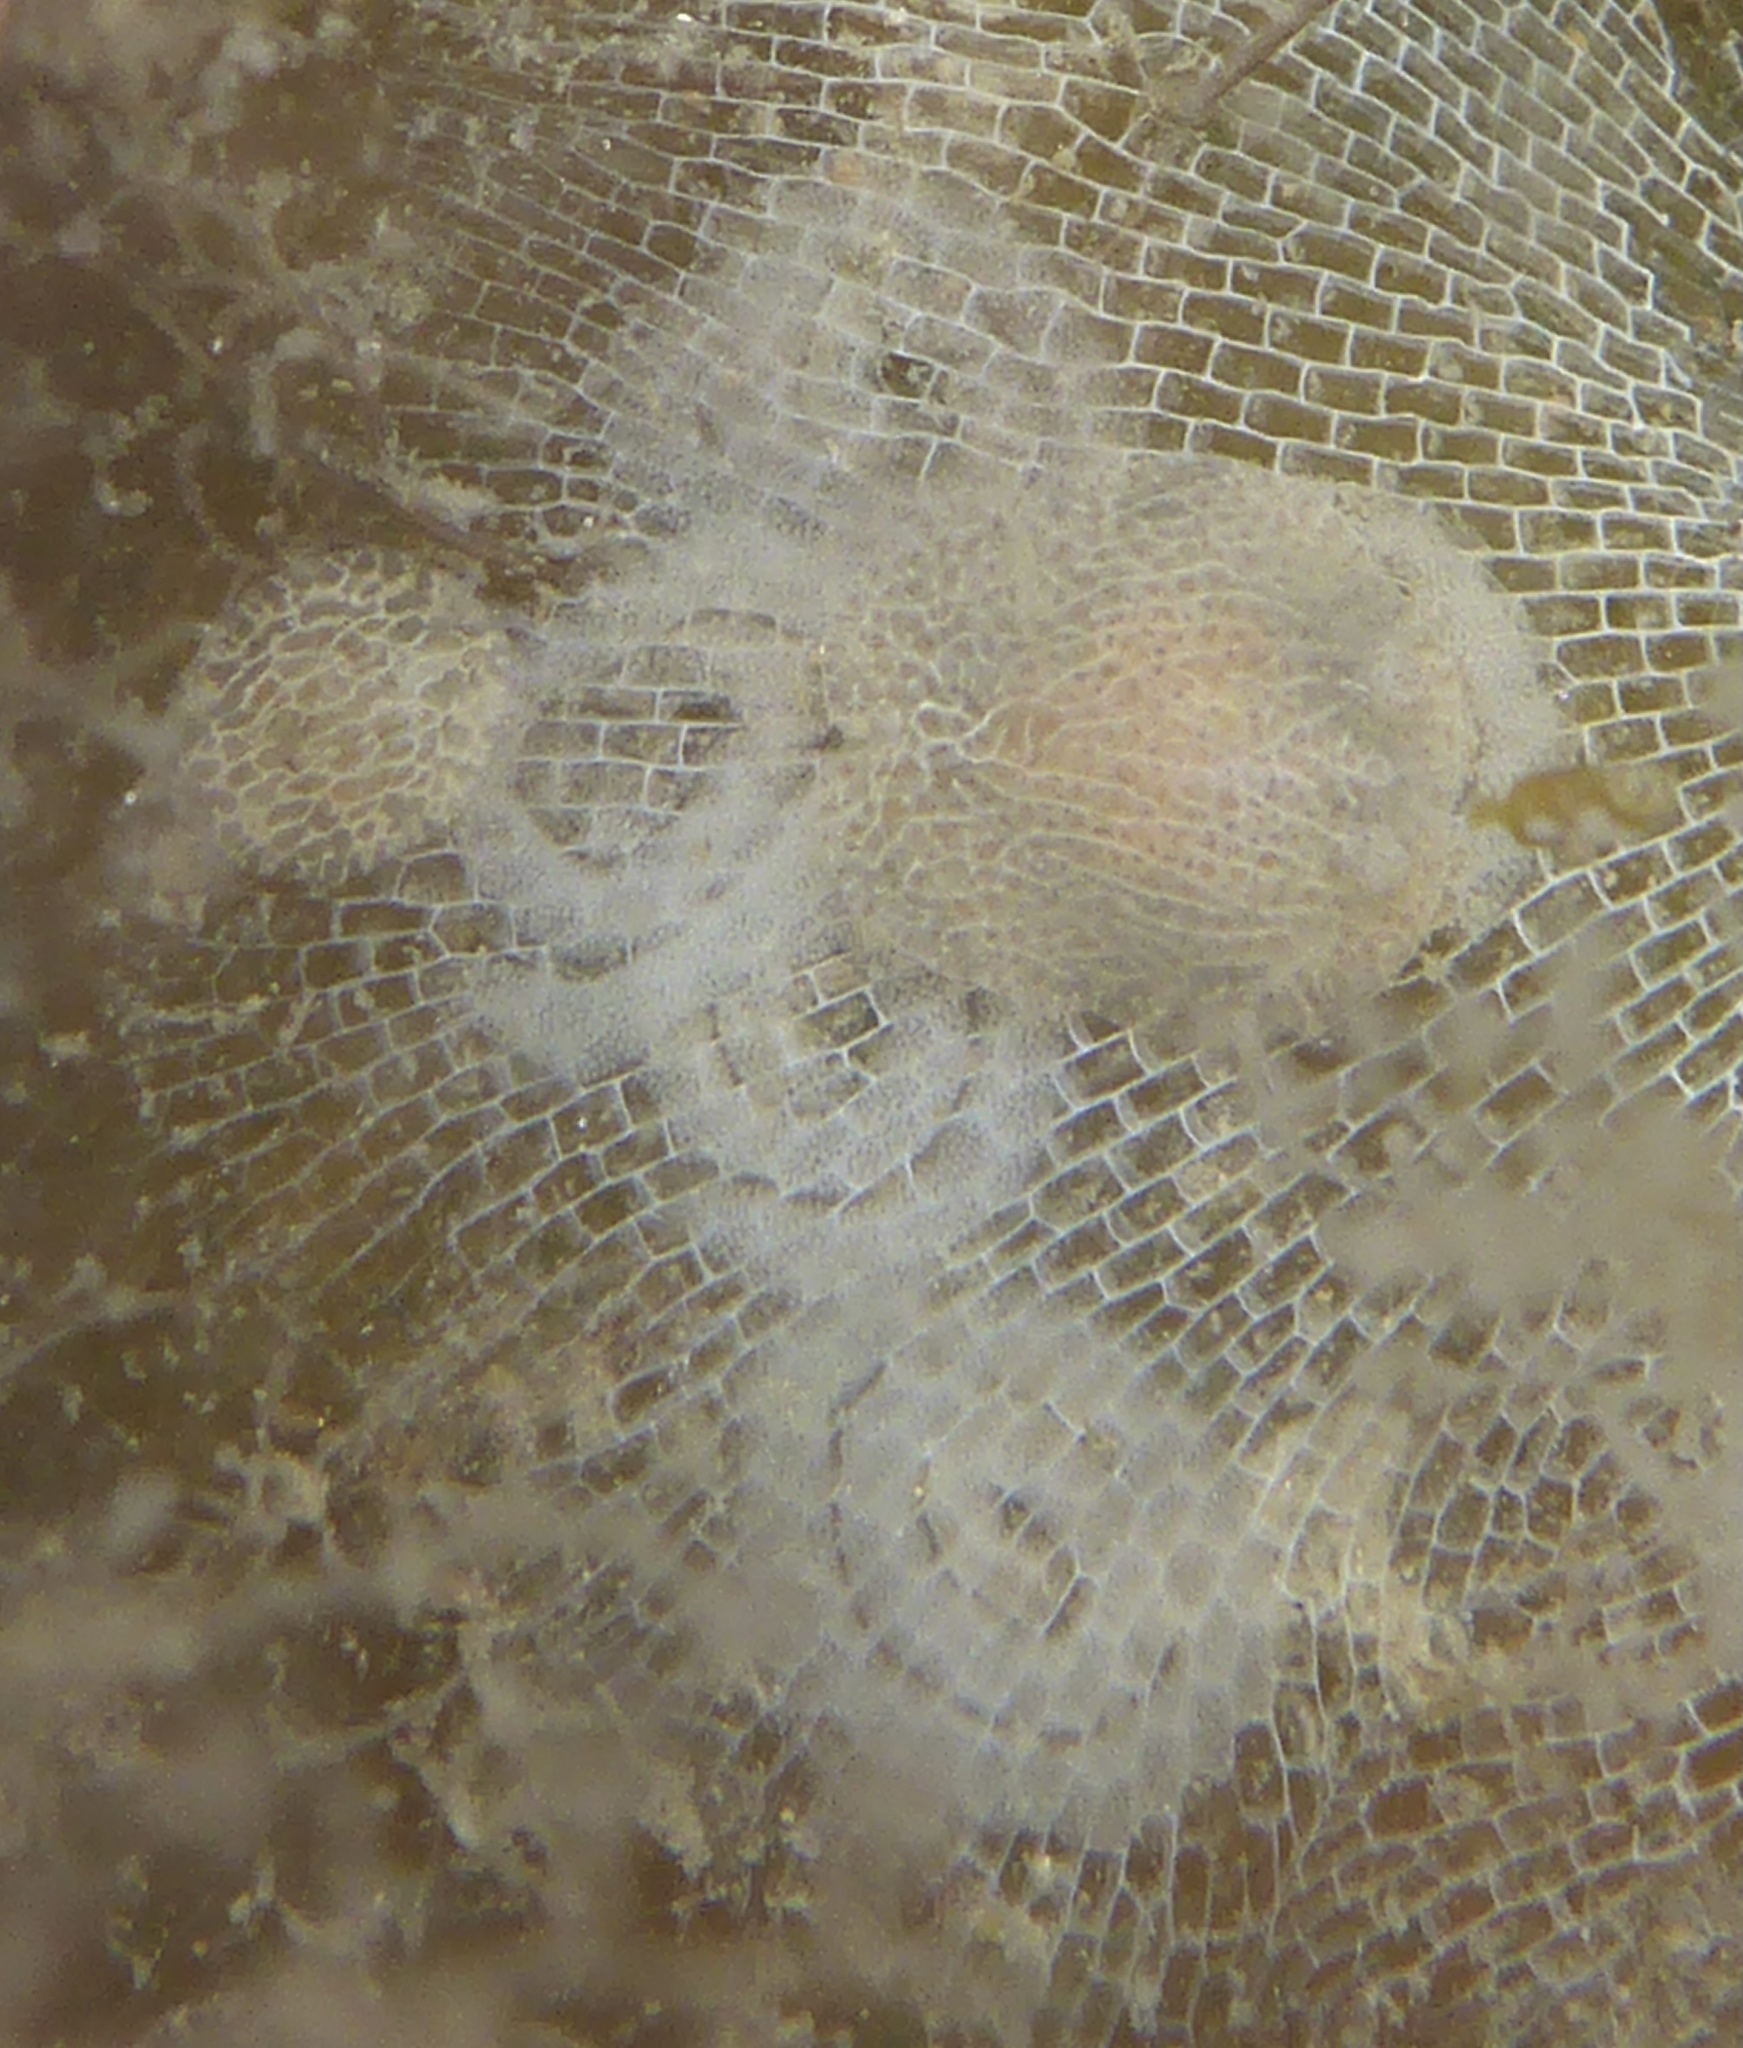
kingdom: Animalia
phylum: Mollusca
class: Gastropoda
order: Nudibranchia
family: Corambidae
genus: Corambe
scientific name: Corambe pacifica
